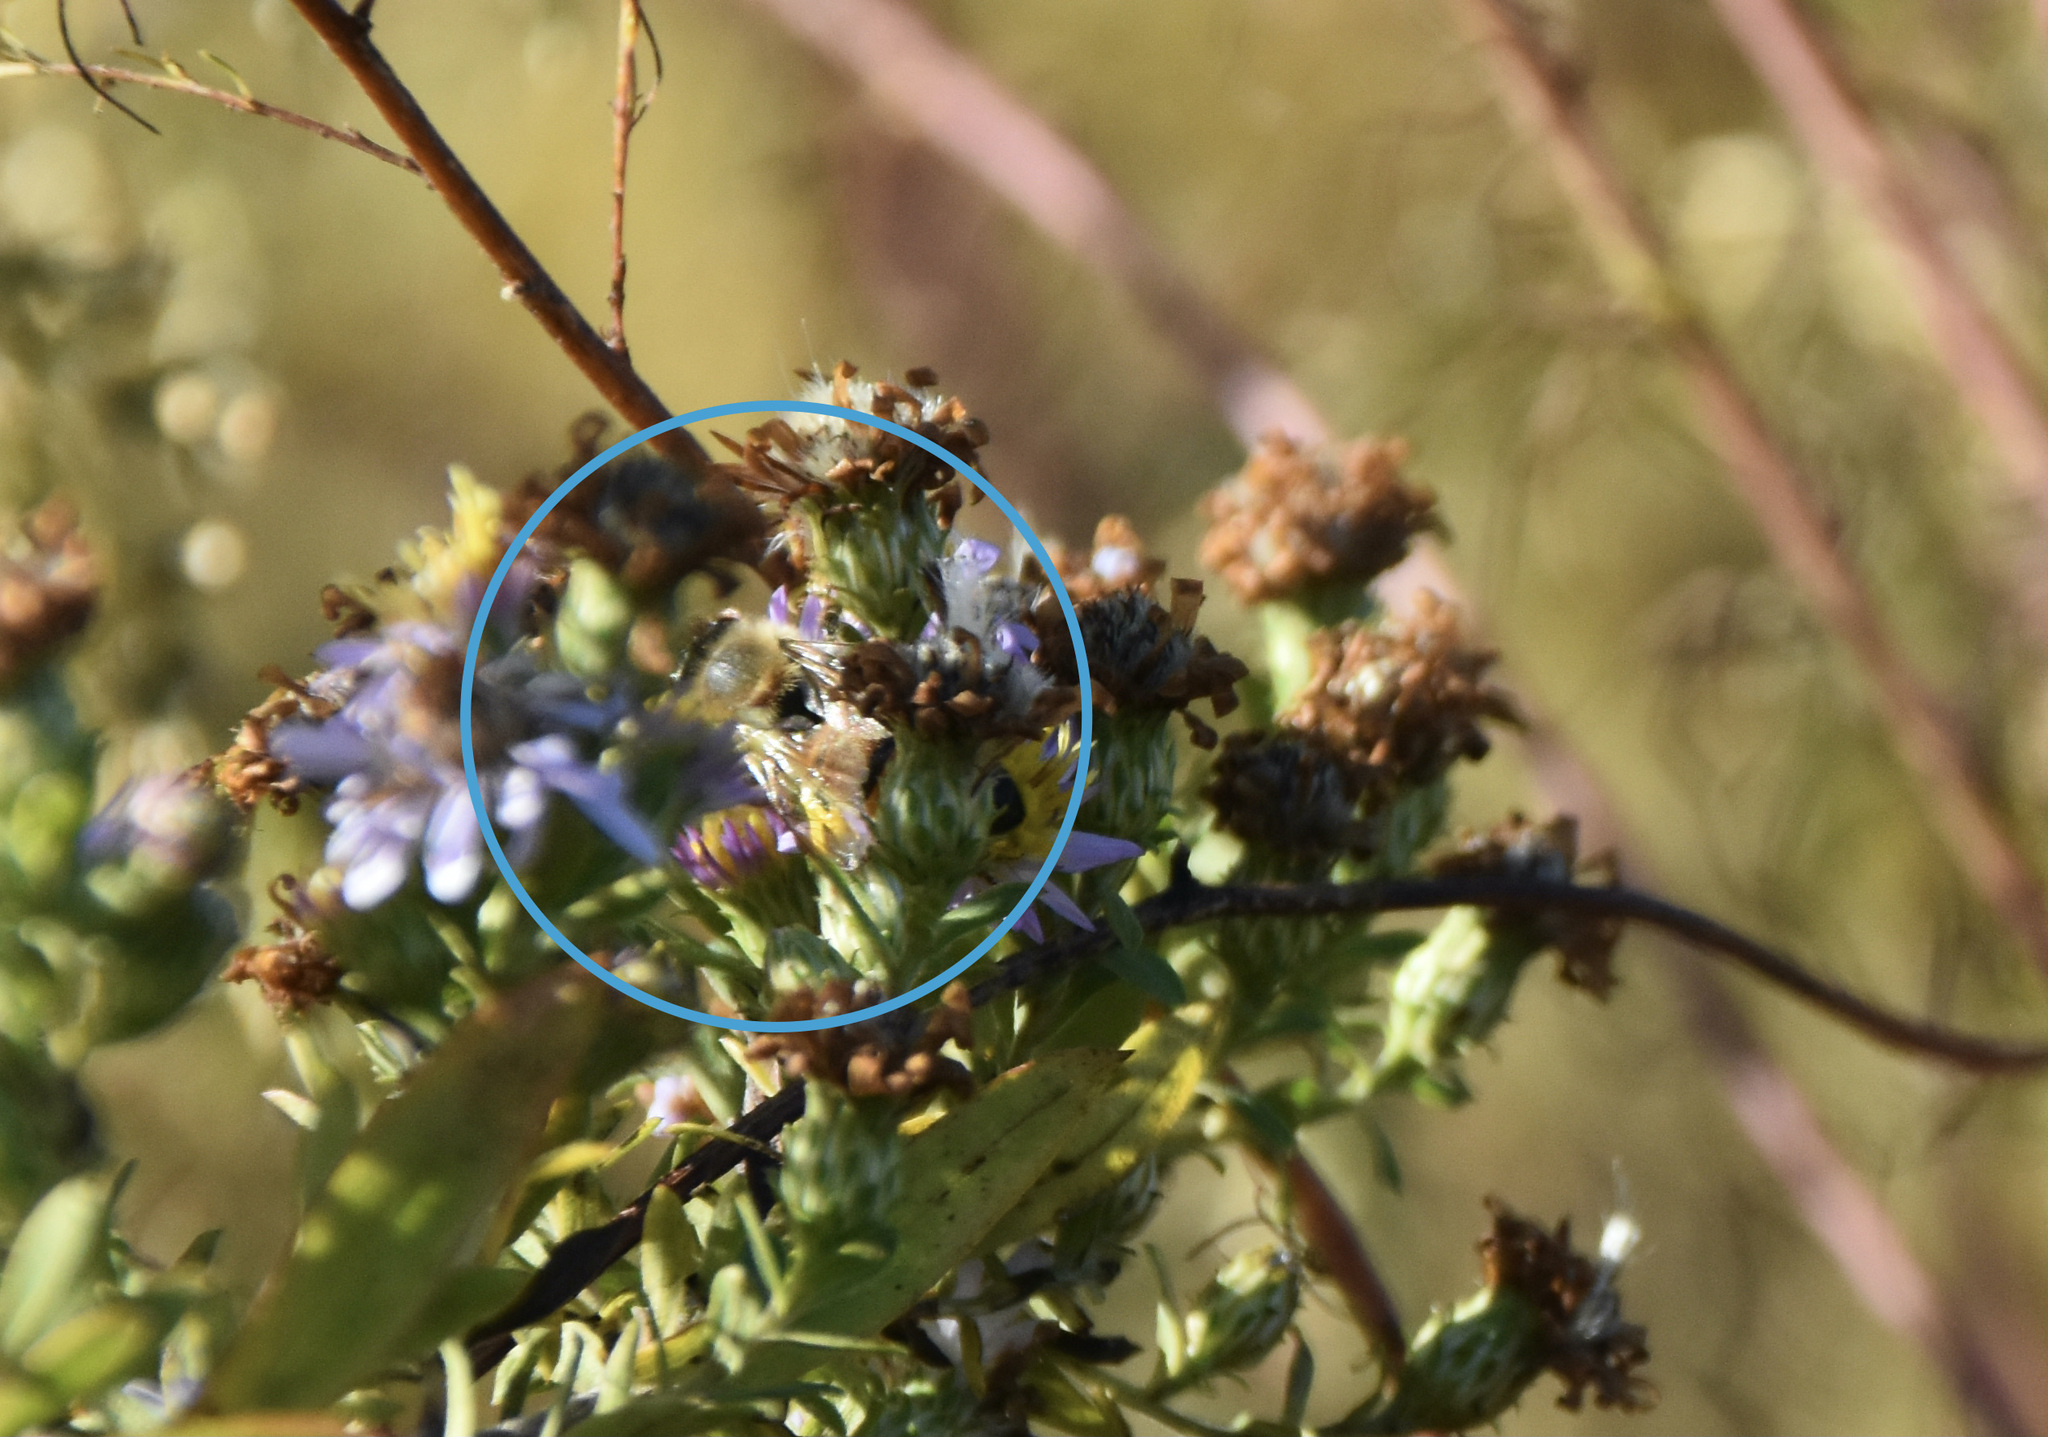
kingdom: Animalia
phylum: Arthropoda
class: Insecta
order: Hymenoptera
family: Apidae
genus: Apis
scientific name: Apis mellifera
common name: Honey bee
